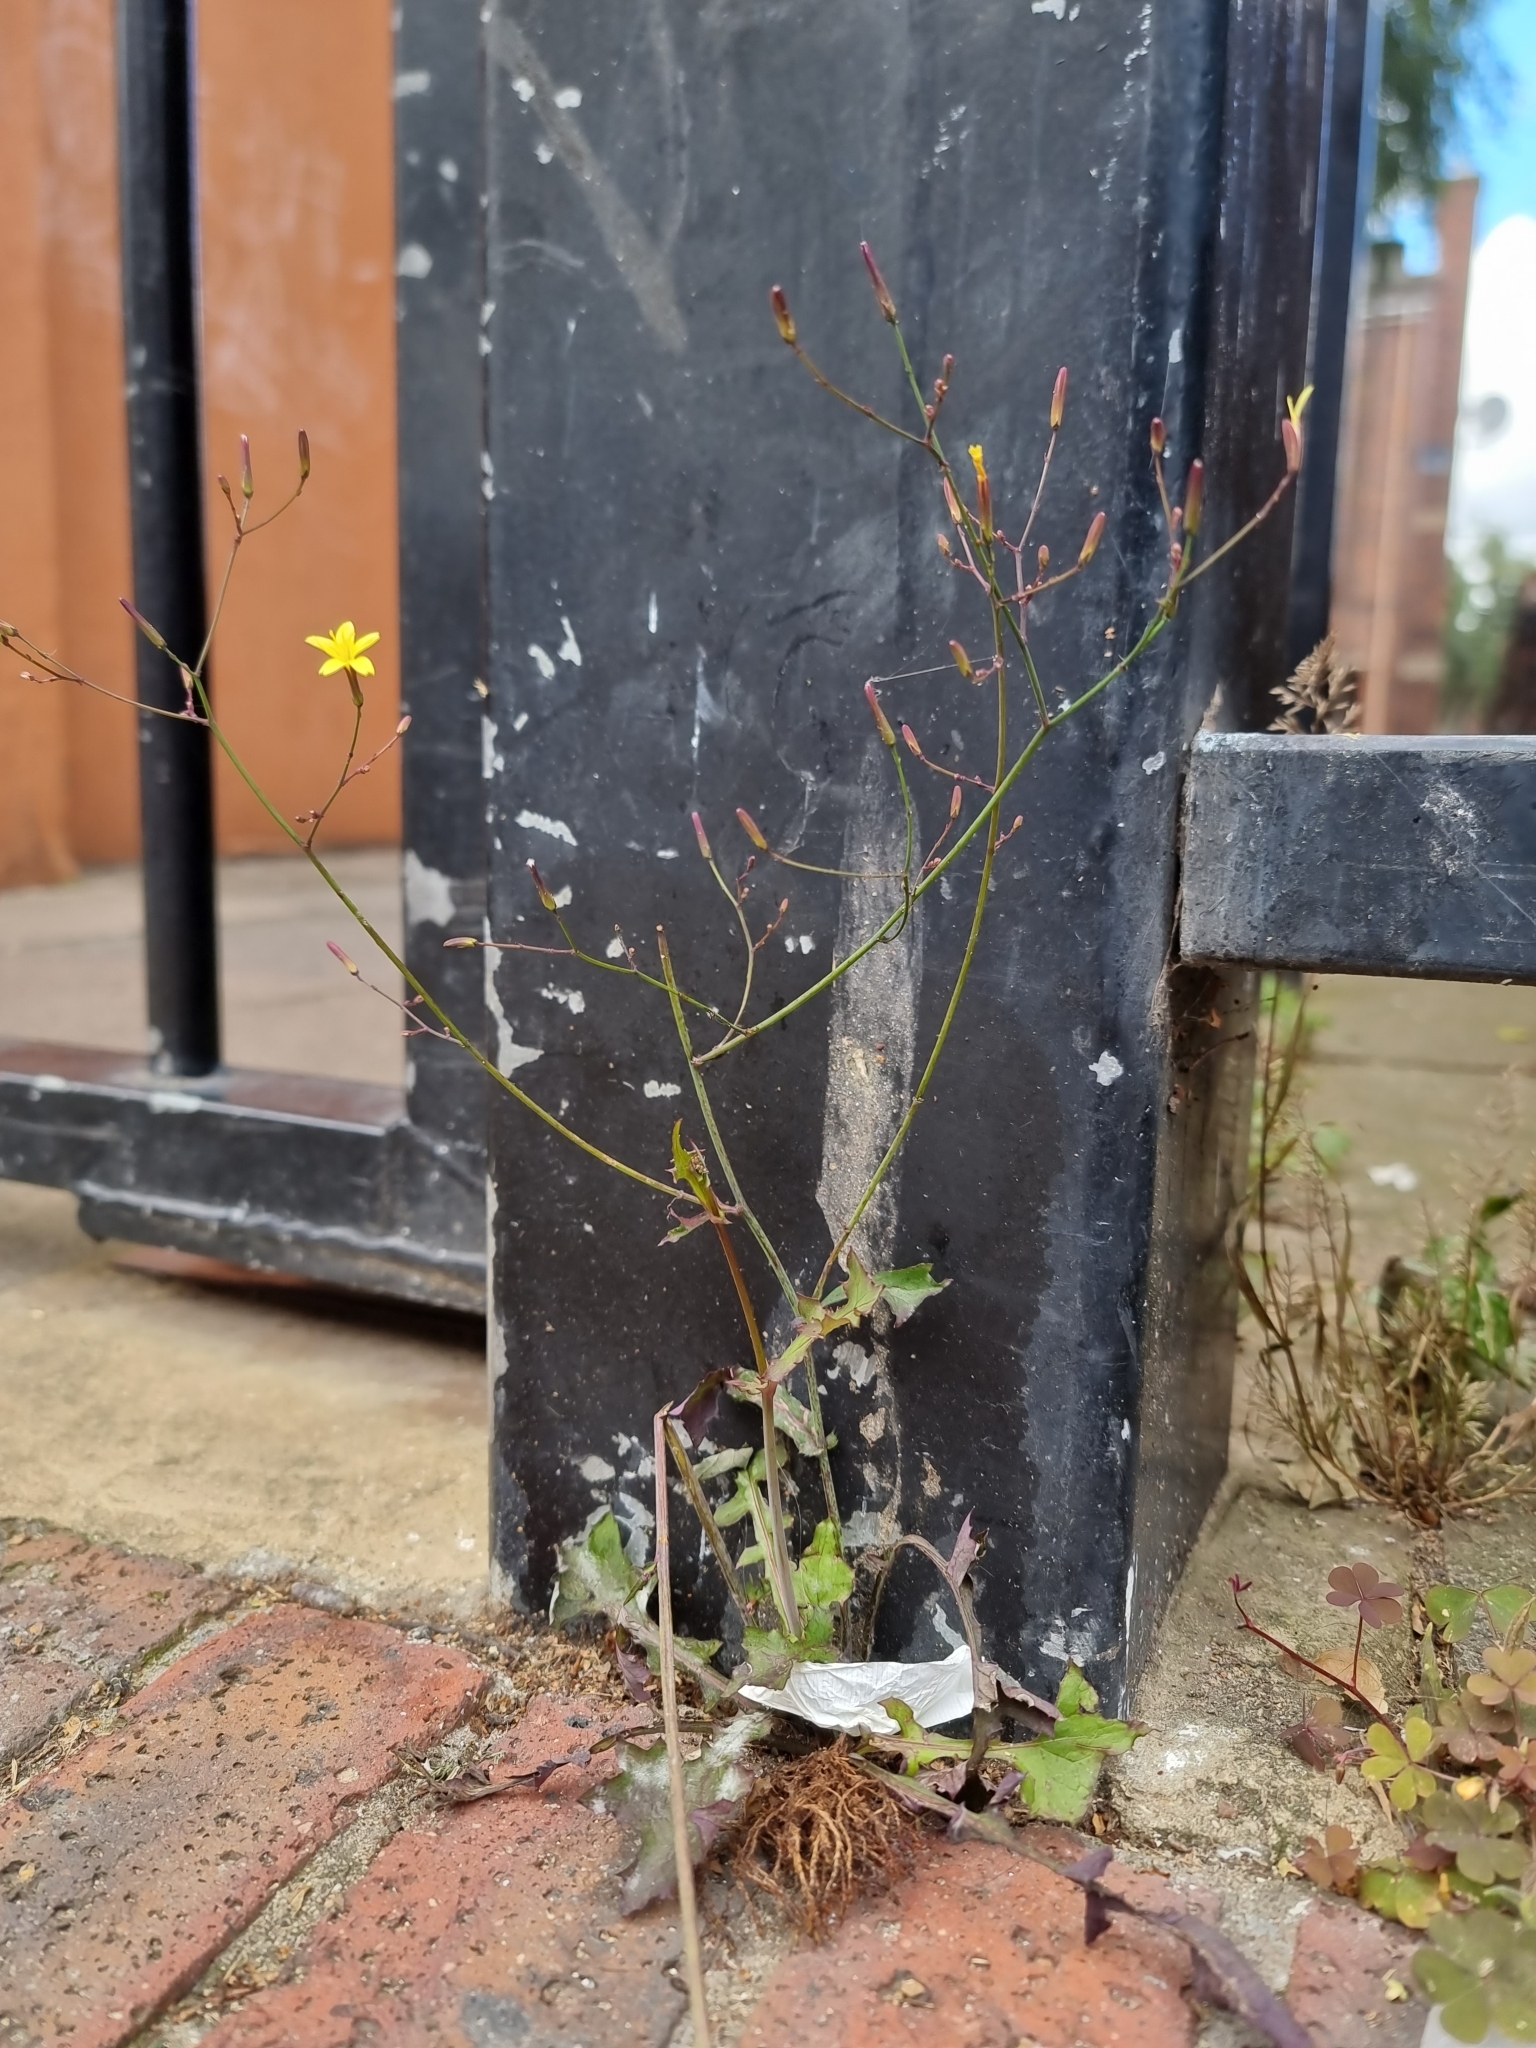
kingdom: Plantae
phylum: Tracheophyta
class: Magnoliopsida
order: Asterales
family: Asteraceae
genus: Mycelis
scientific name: Mycelis muralis
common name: Wall lettuce
